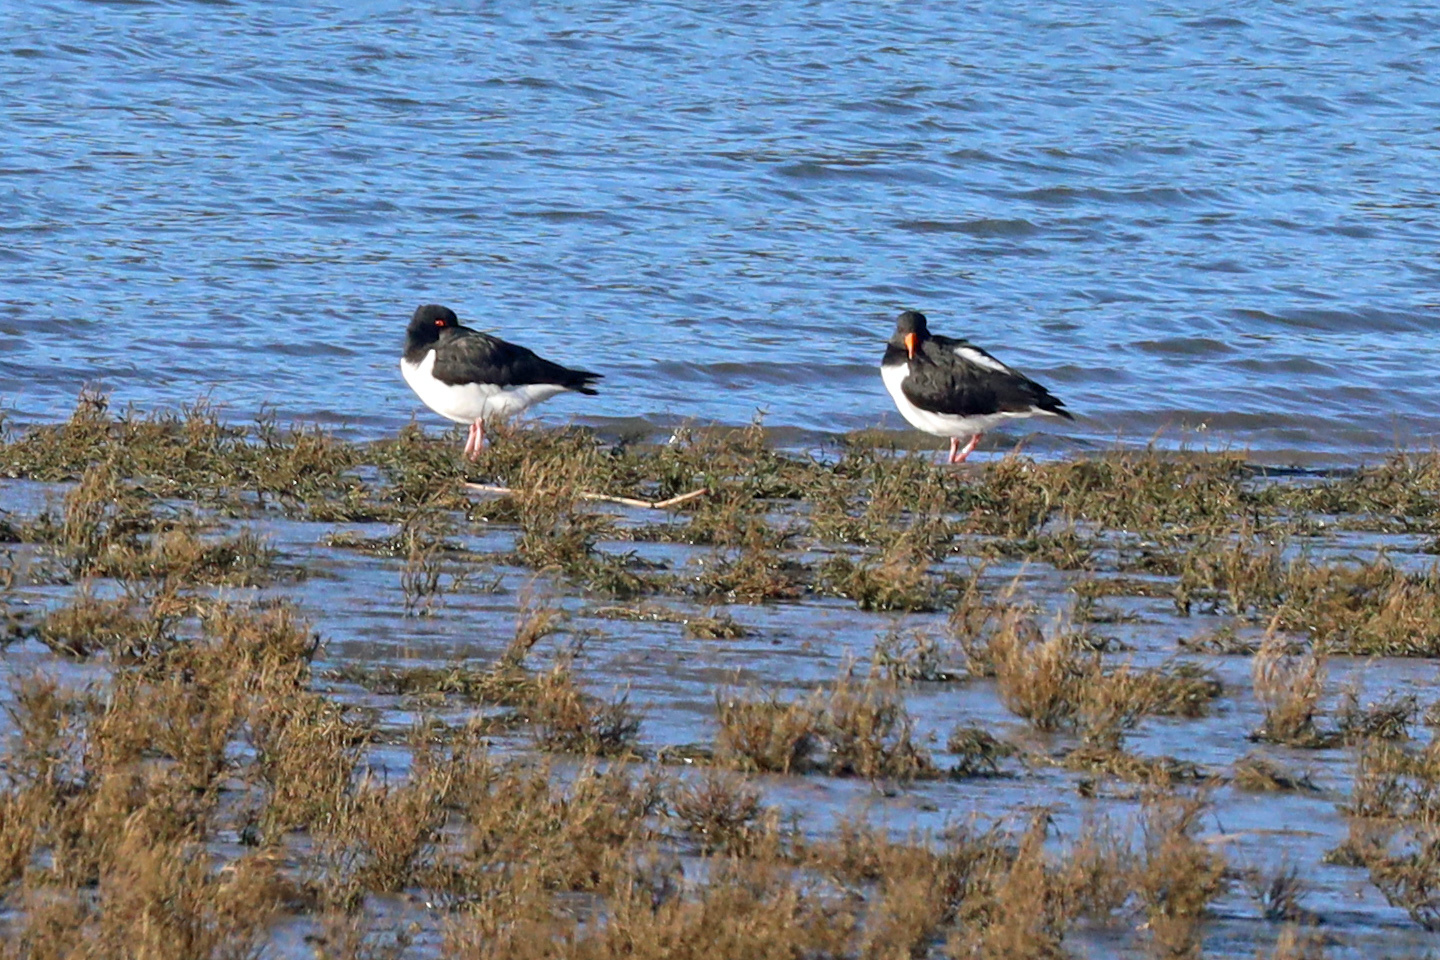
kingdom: Animalia
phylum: Chordata
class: Aves
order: Charadriiformes
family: Haematopodidae
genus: Haematopus
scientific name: Haematopus ostralegus
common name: Eurasian oystercatcher
